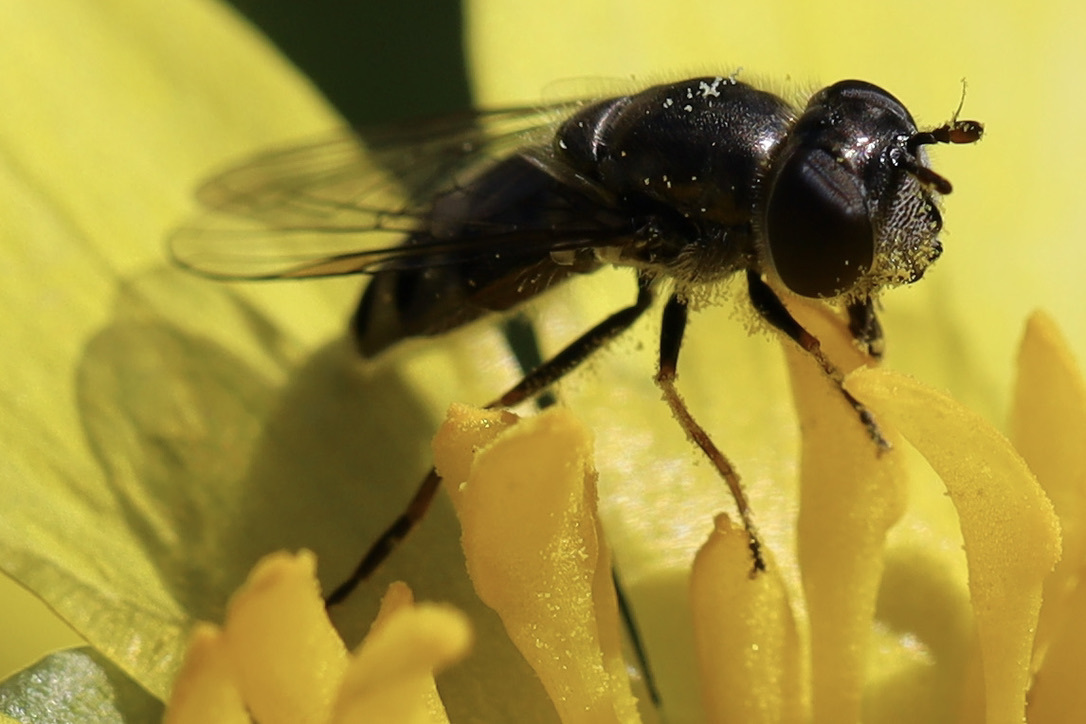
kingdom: Animalia
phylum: Arthropoda
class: Insecta
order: Diptera
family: Syrphidae
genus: Platycheirus
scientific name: Platycheirus stegnus
